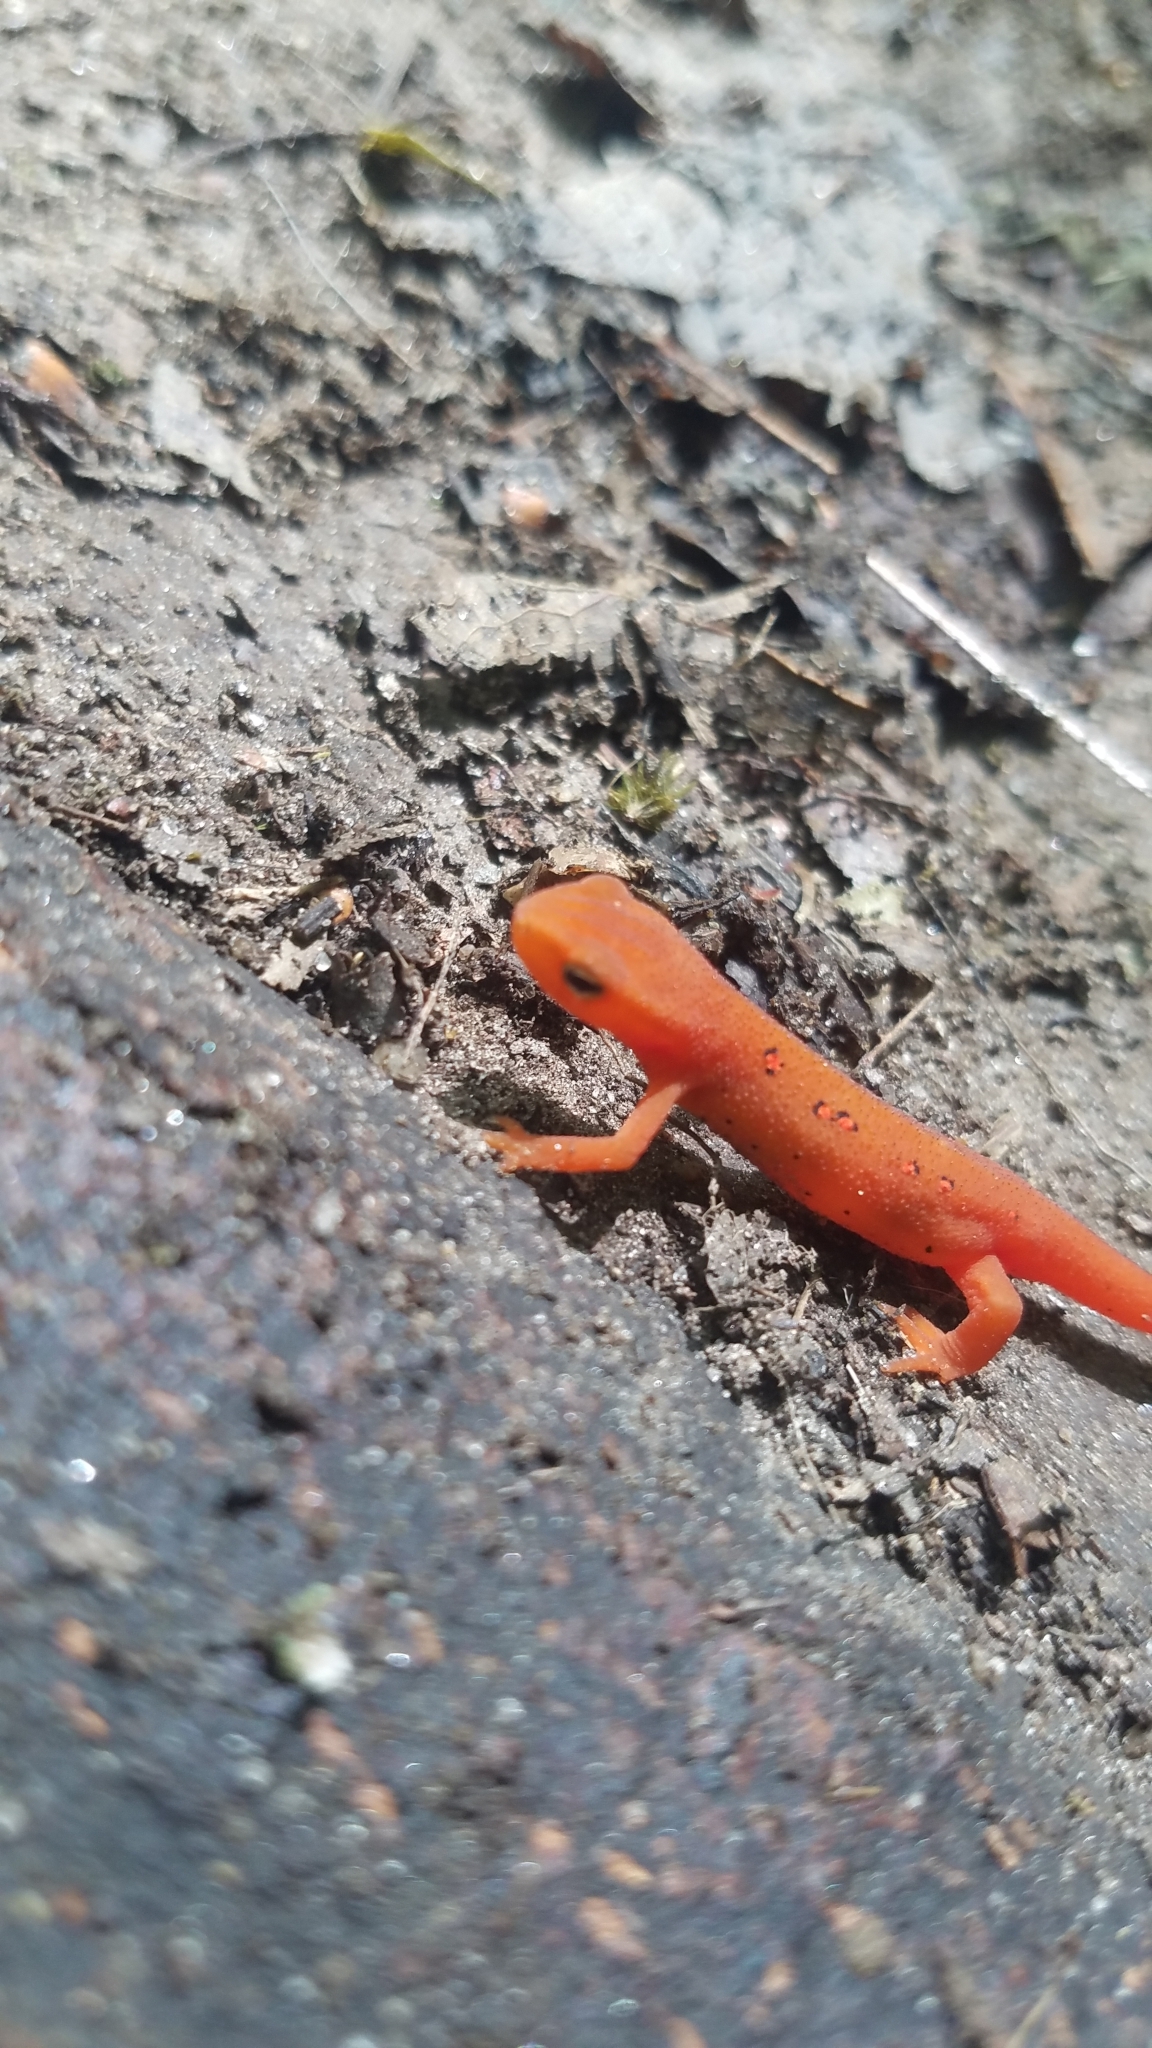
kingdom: Animalia
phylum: Chordata
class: Amphibia
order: Caudata
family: Salamandridae
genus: Notophthalmus
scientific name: Notophthalmus viridescens
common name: Eastern newt
